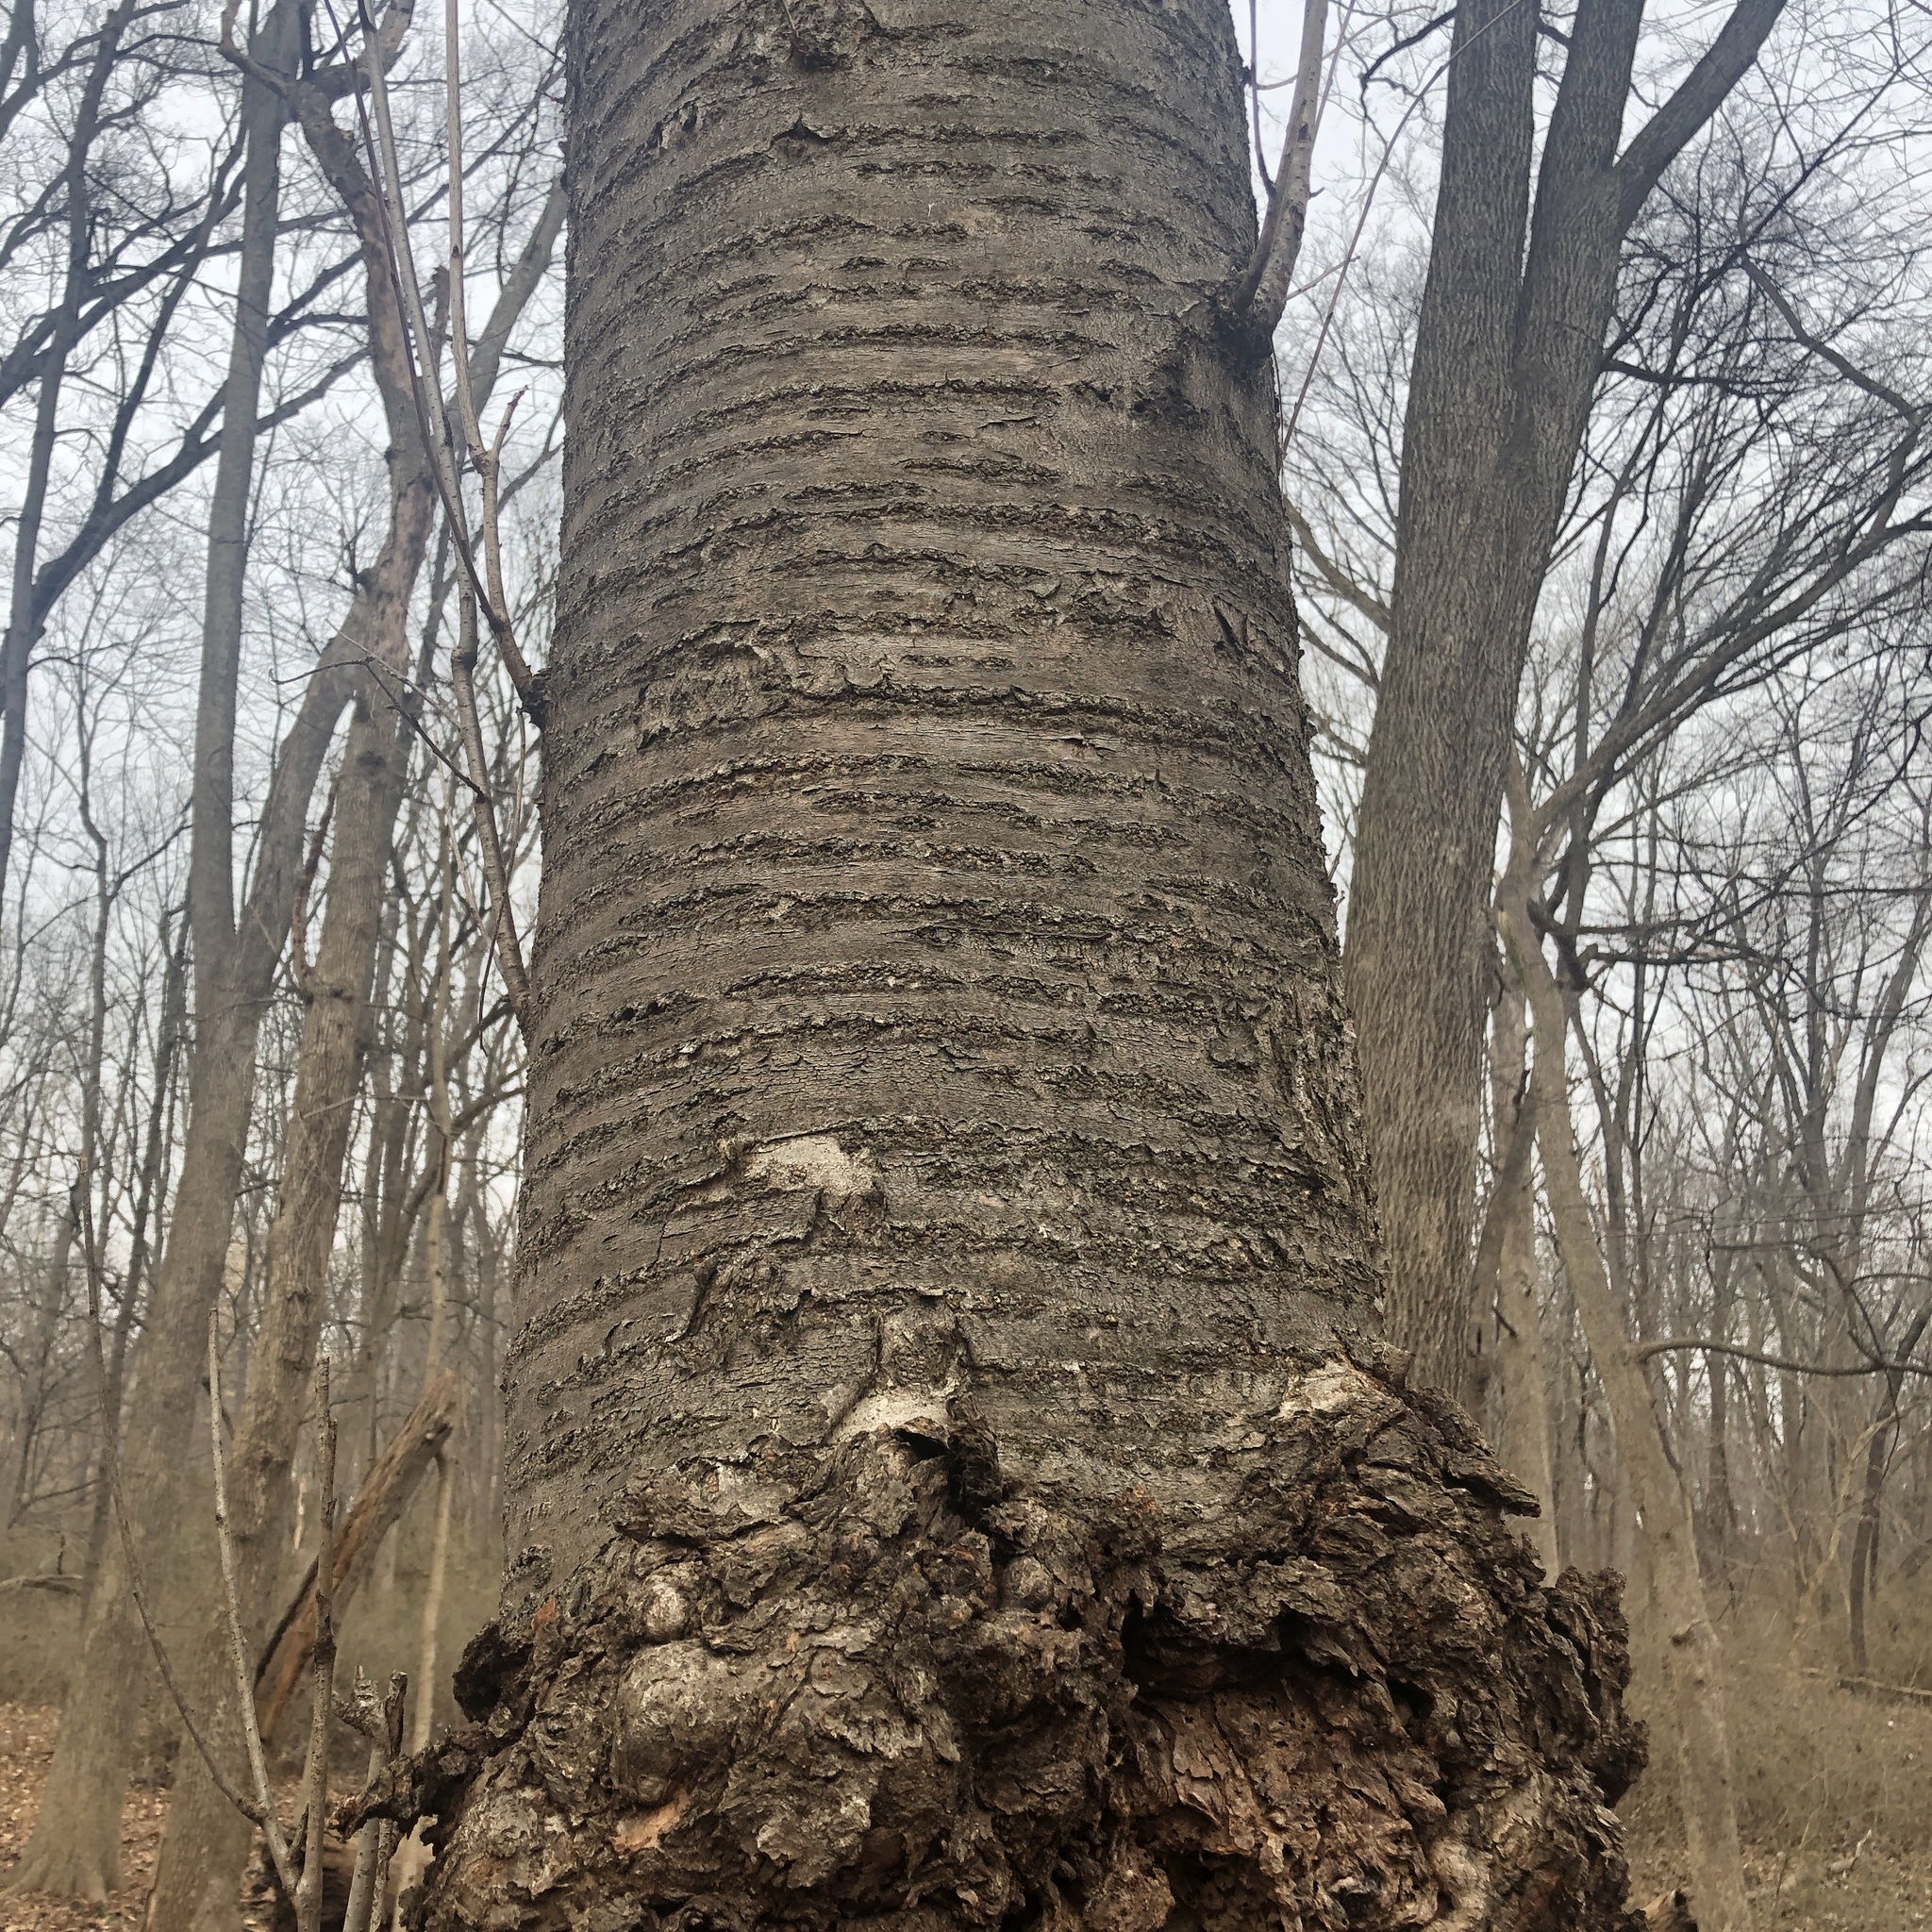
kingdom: Plantae
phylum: Tracheophyta
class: Magnoliopsida
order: Rosales
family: Rosaceae
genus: Prunus
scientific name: Prunus avium
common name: Sweet cherry
